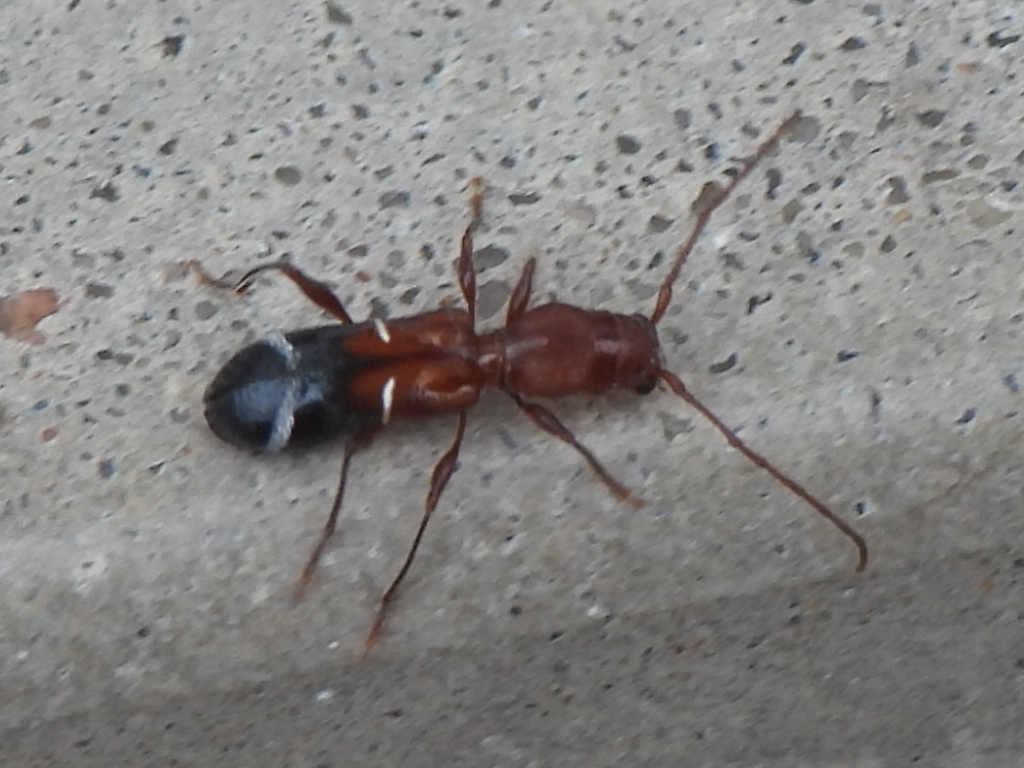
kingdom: Animalia
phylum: Arthropoda
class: Insecta
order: Coleoptera
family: Cerambycidae
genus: Euderces
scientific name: Euderces pini
